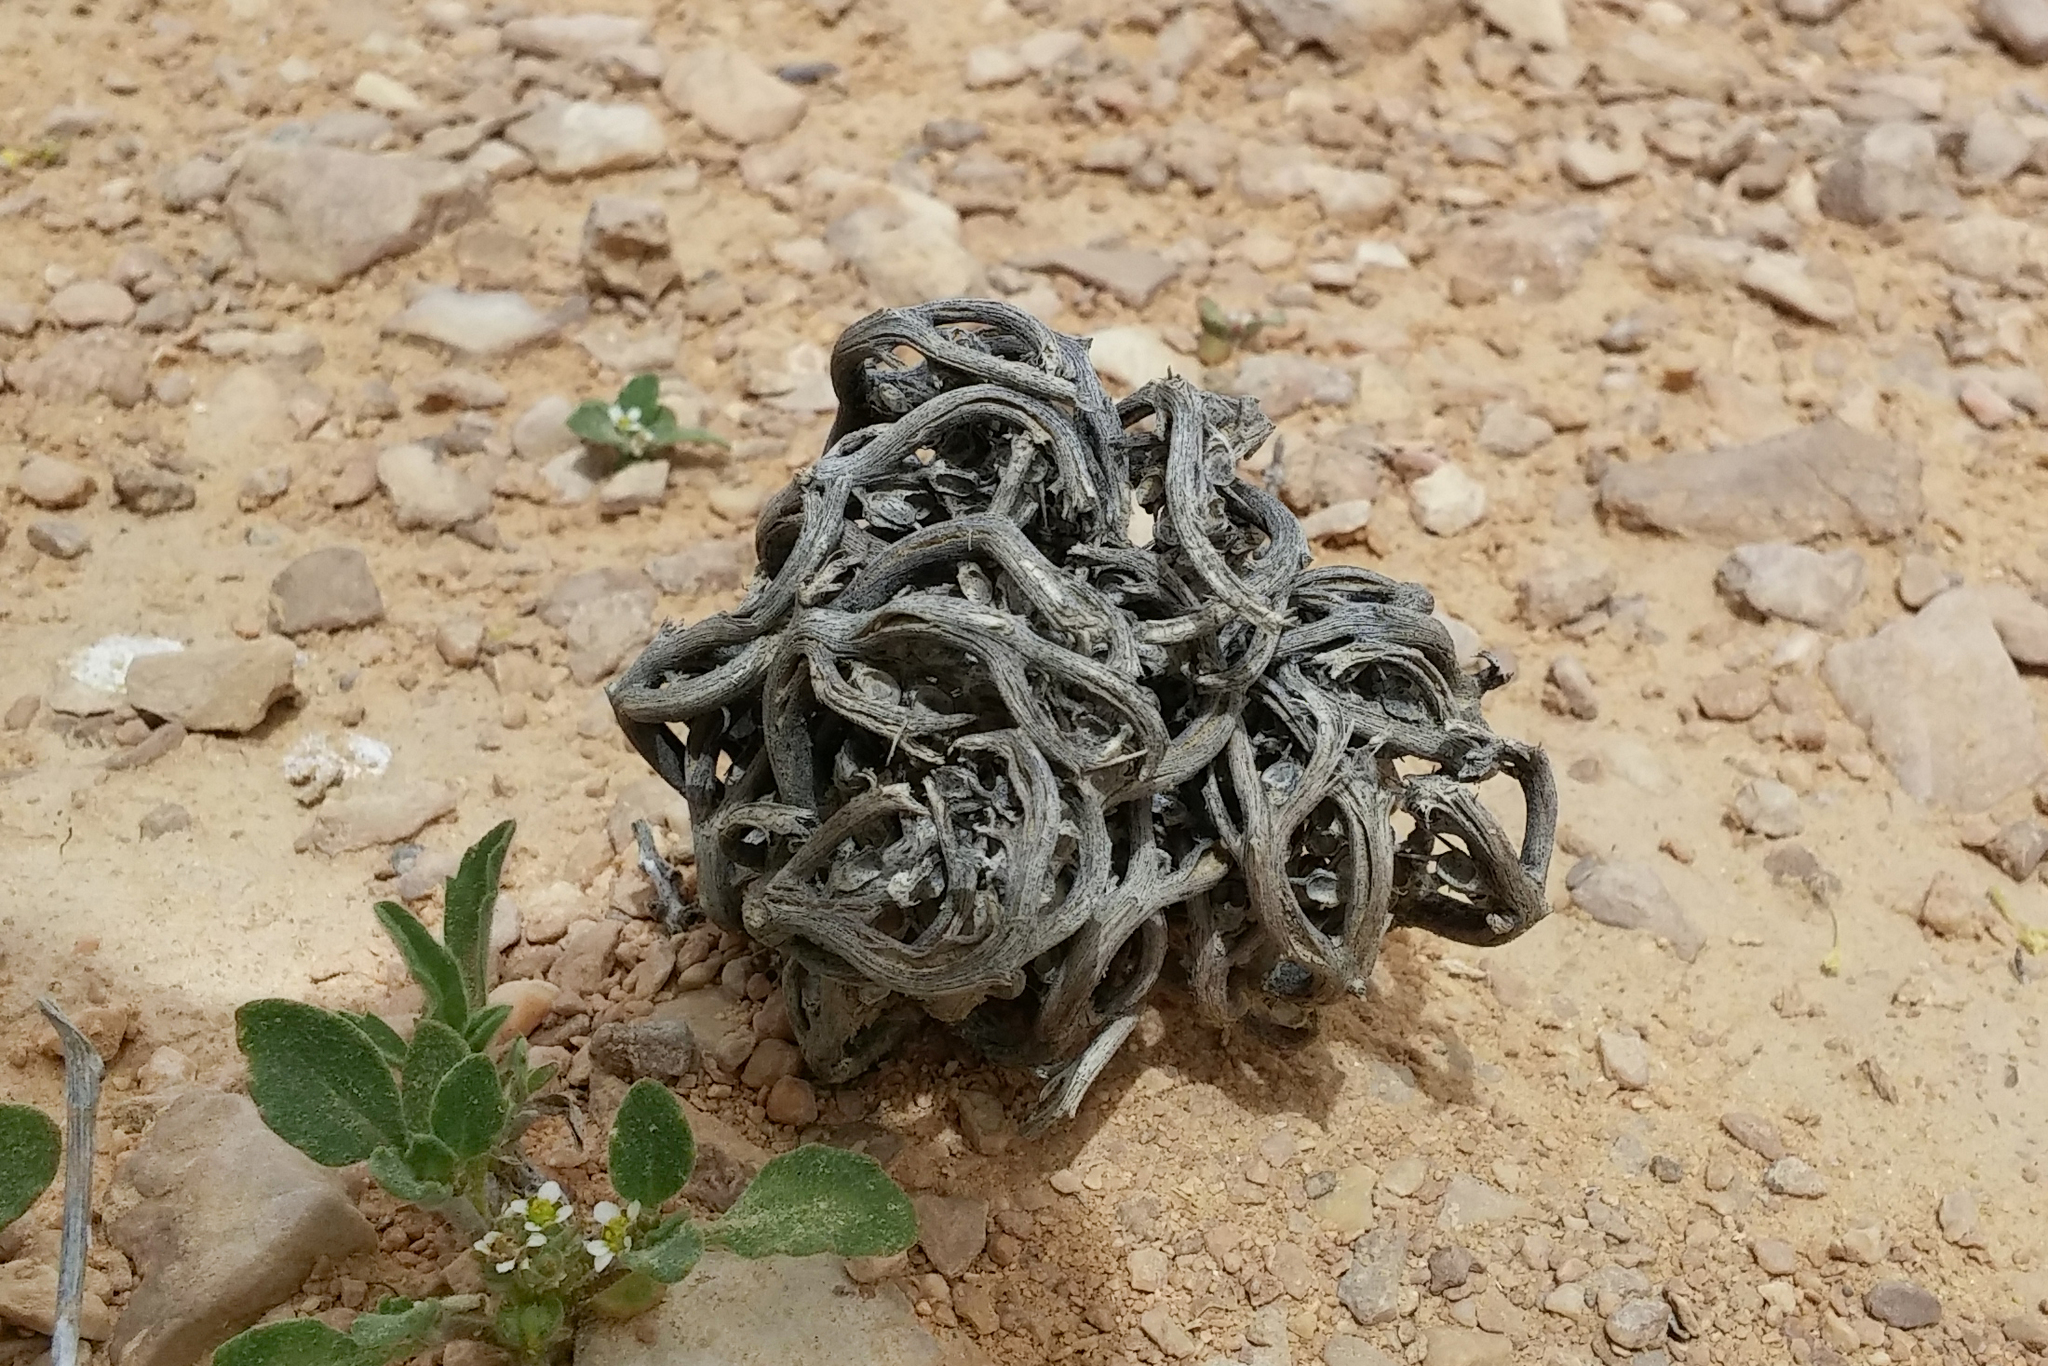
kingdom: Plantae
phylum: Tracheophyta
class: Magnoliopsida
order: Brassicales
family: Brassicaceae
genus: Anastatica
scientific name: Anastatica hierochuntica
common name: Rose-of-jericho
